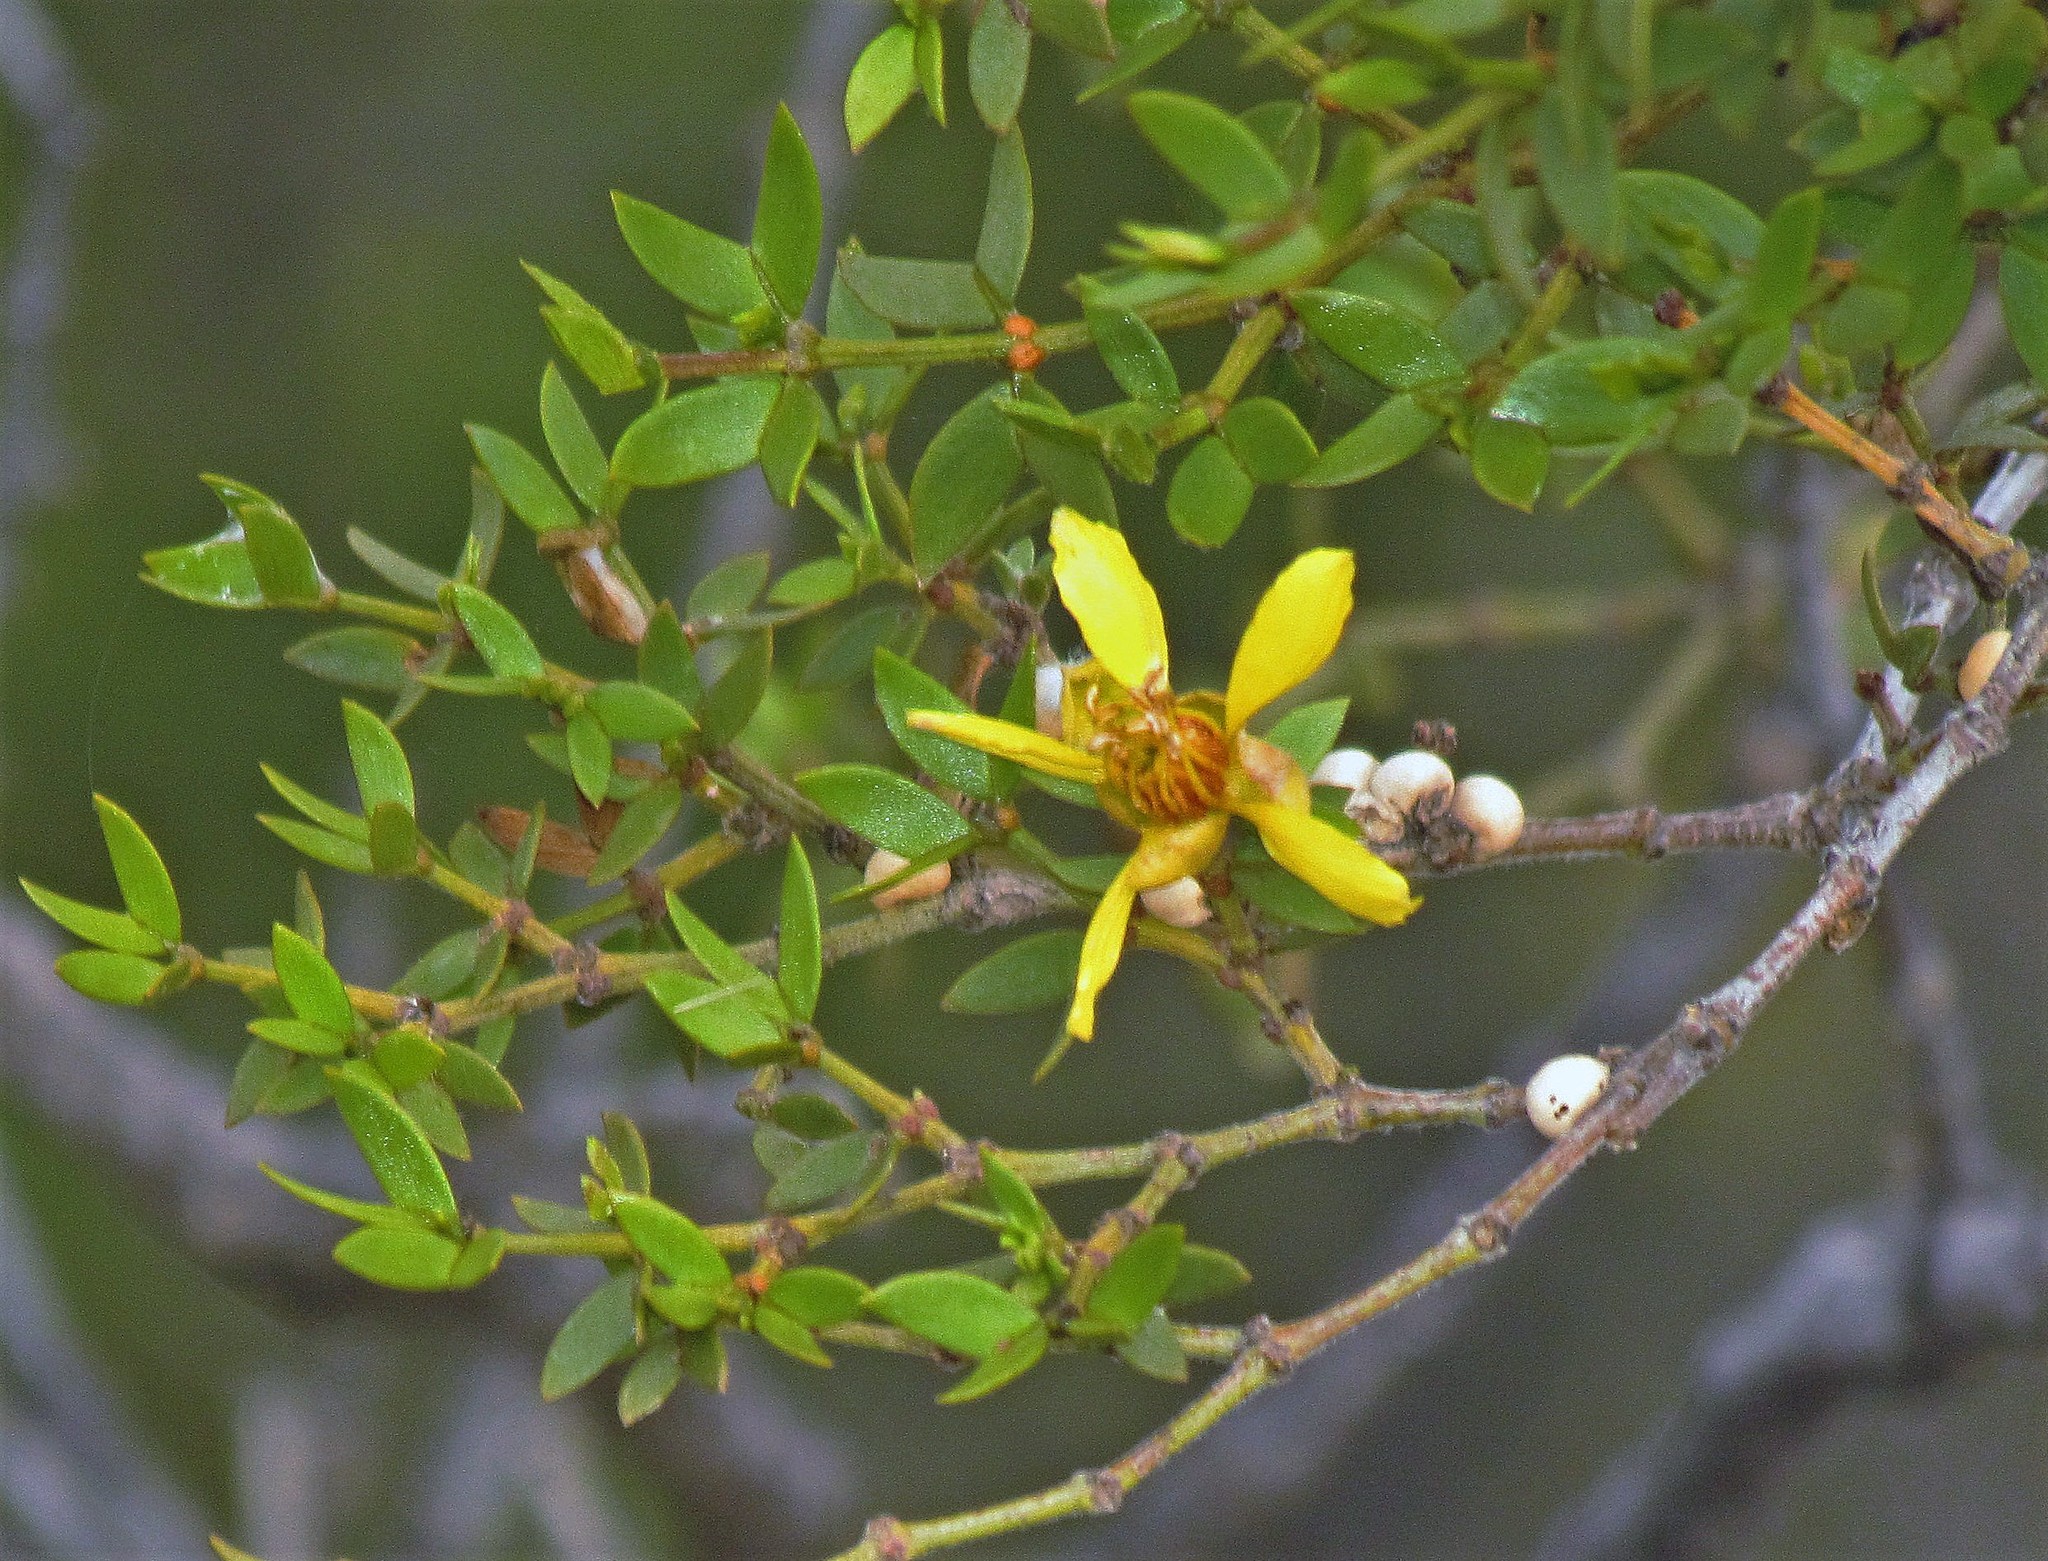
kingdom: Plantae
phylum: Tracheophyta
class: Magnoliopsida
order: Zygophyllales
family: Zygophyllaceae
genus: Larrea
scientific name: Larrea divaricata
